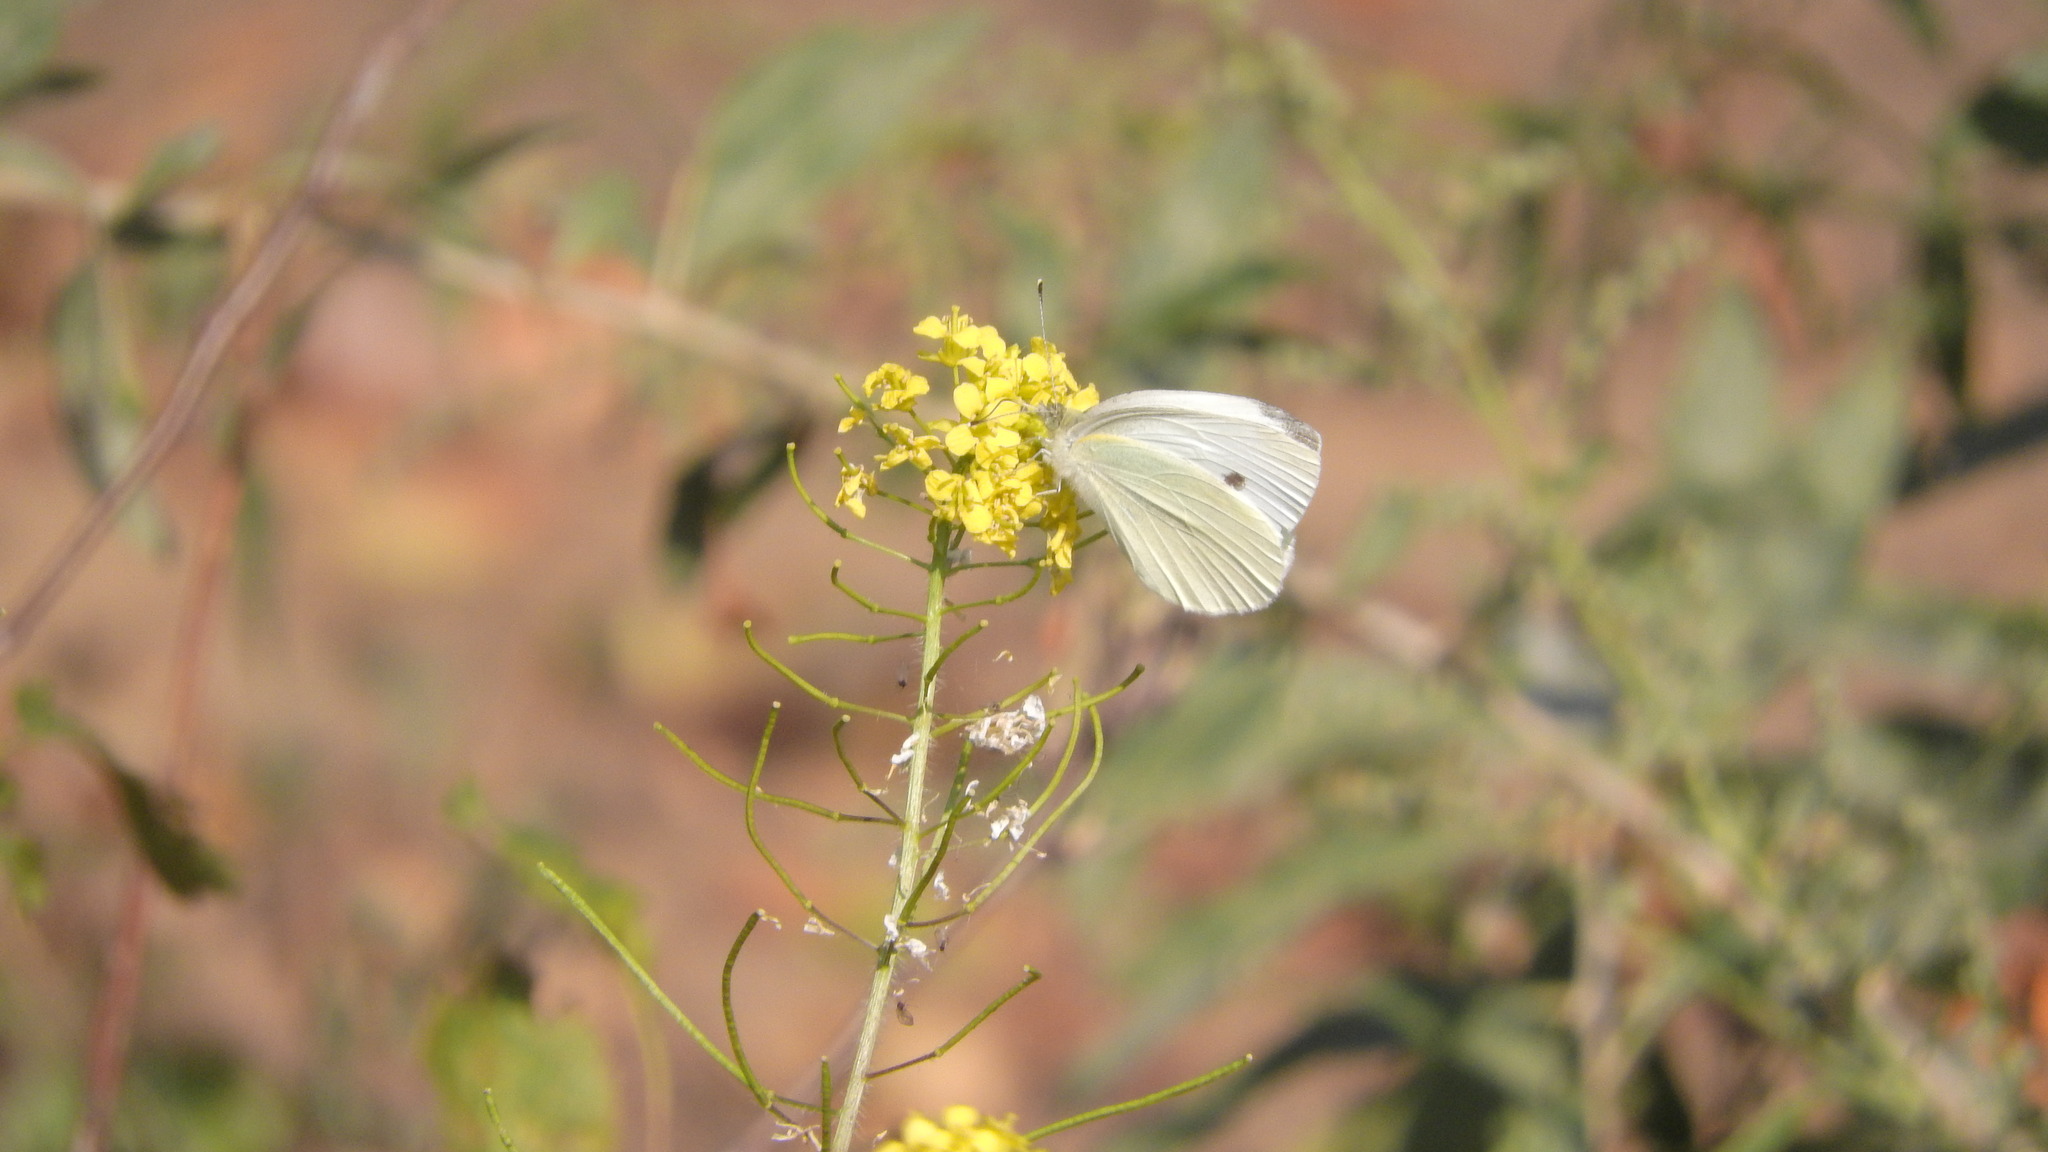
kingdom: Animalia
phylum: Arthropoda
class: Insecta
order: Lepidoptera
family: Pieridae
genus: Pieris
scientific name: Pieris rapae
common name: Small white
